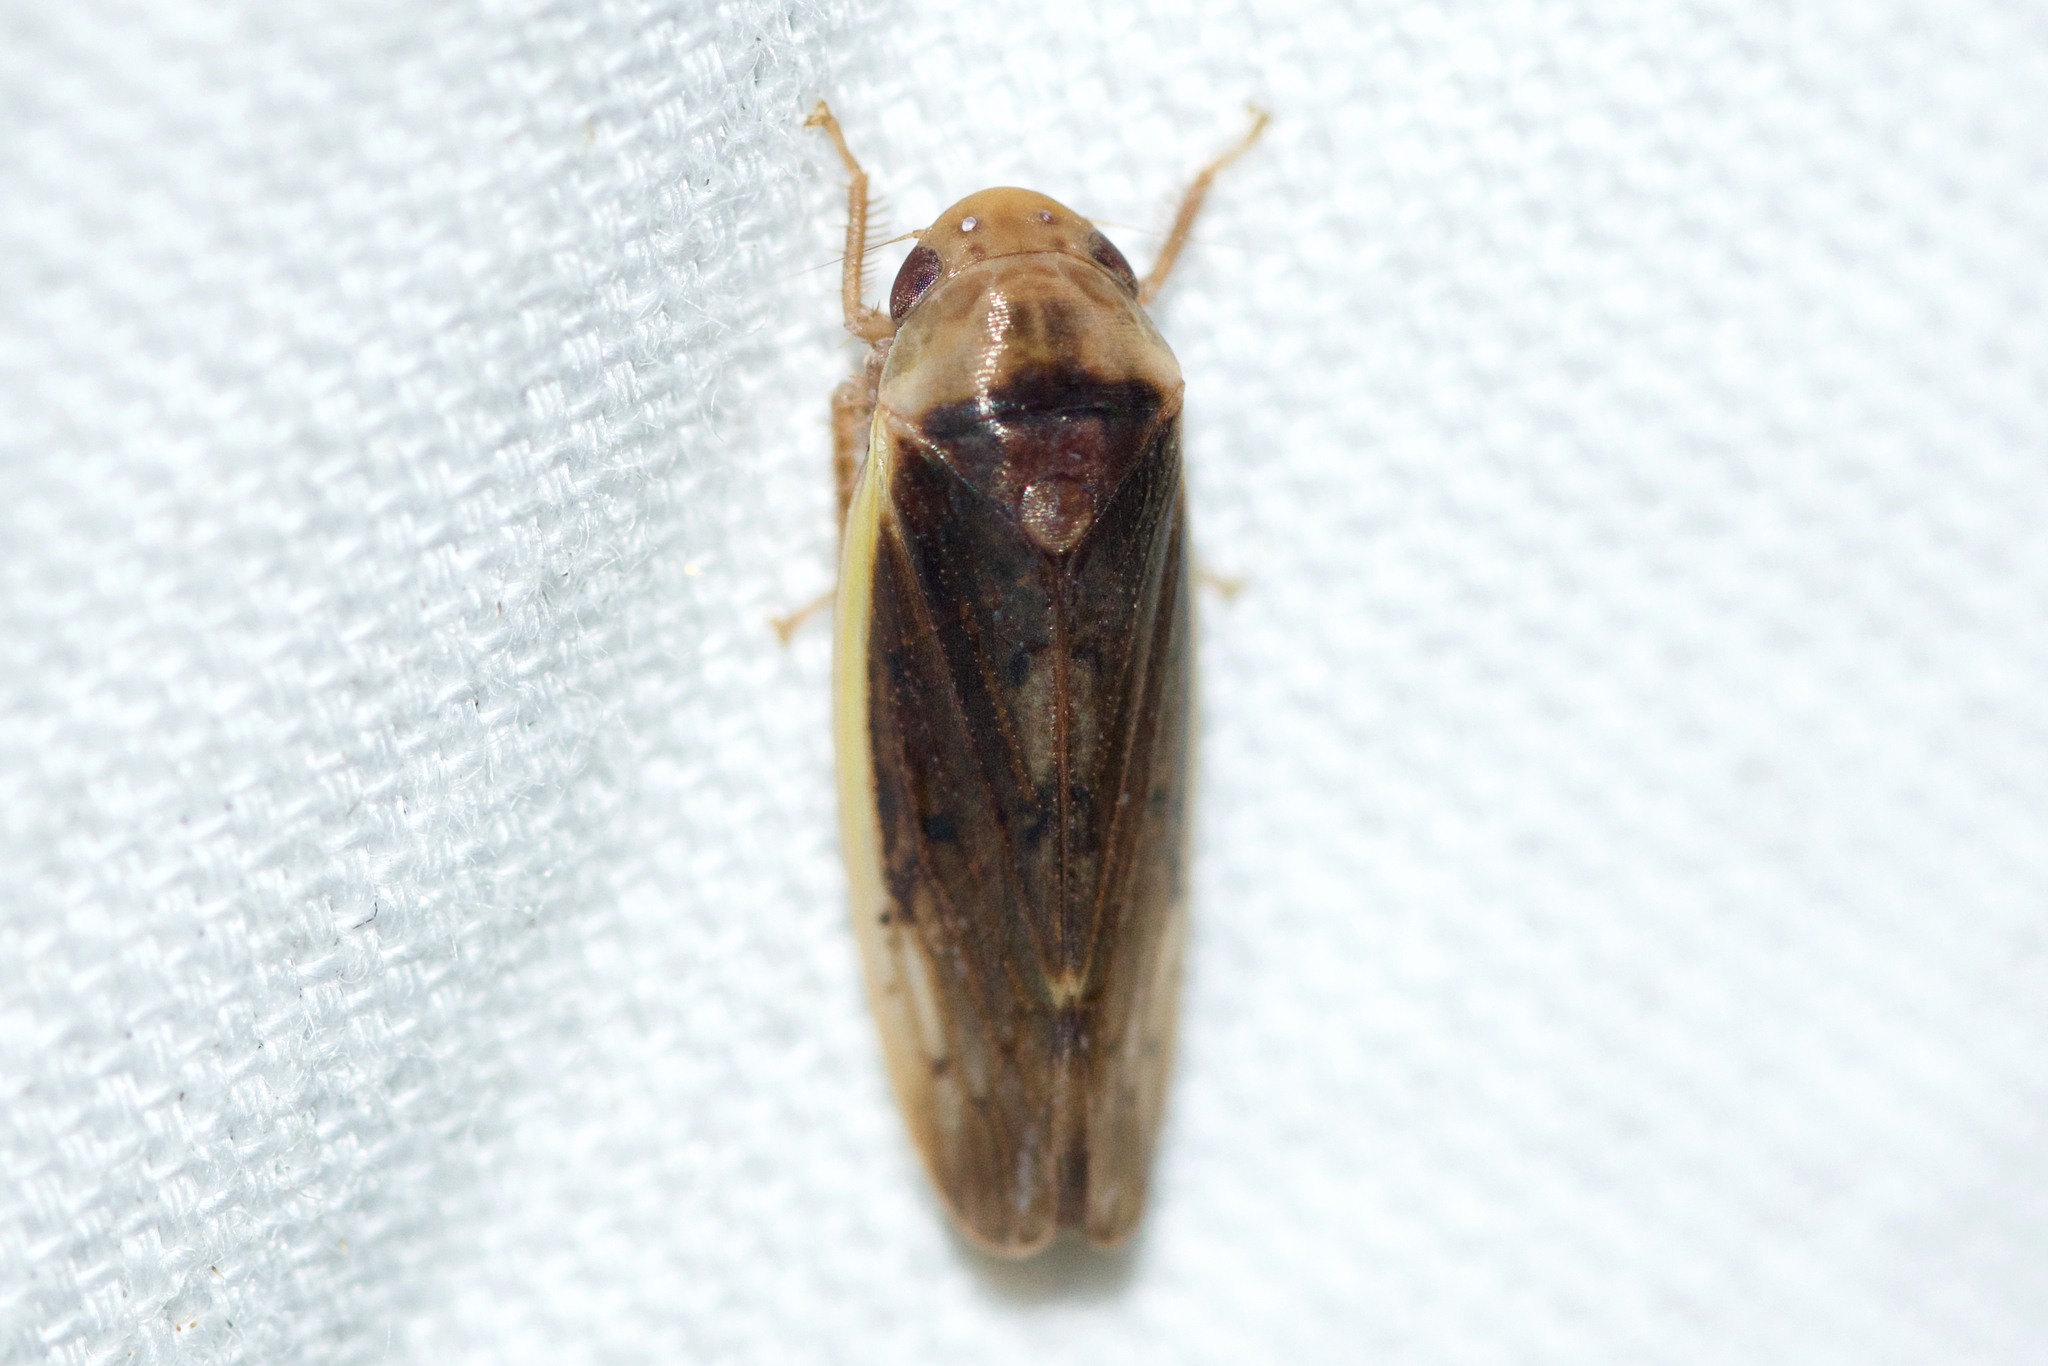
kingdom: Animalia
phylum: Arthropoda
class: Insecta
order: Hemiptera
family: Cicadellidae
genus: Ponana
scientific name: Ponana limbatipennis
